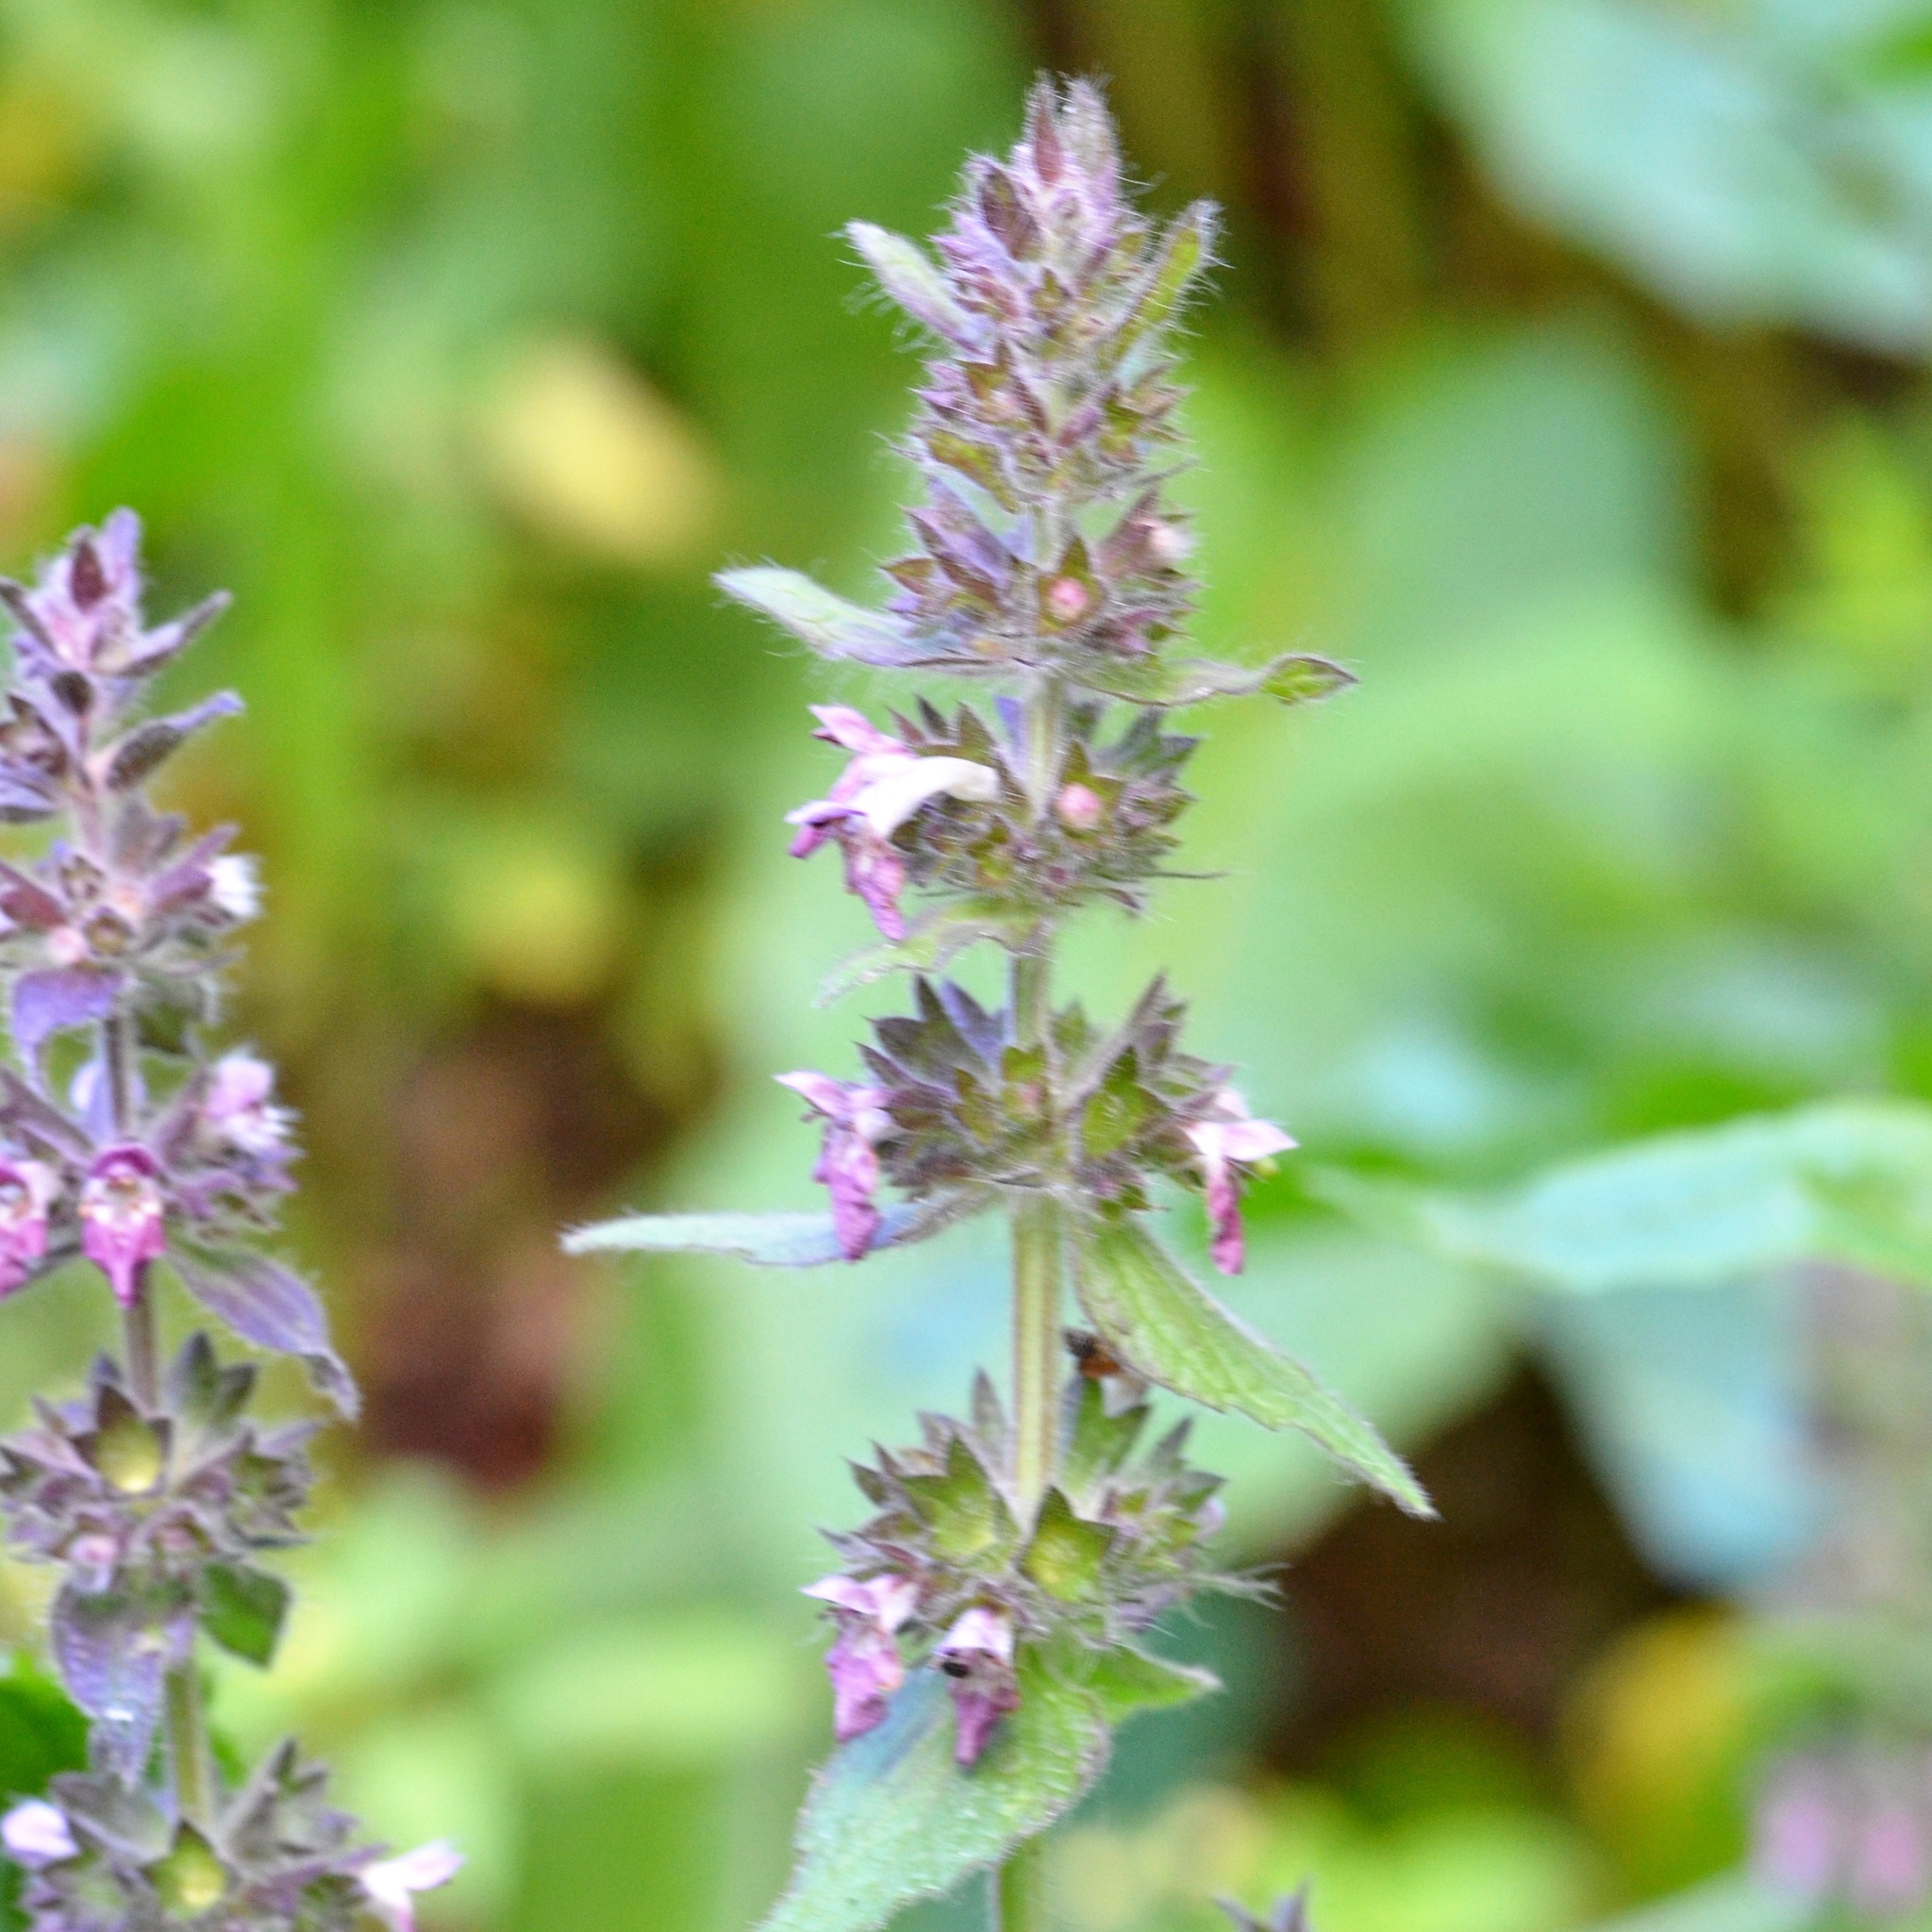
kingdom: Plantae
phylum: Tracheophyta
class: Magnoliopsida
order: Lamiales
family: Lamiaceae
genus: Stachys
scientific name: Stachys alpina
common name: Limestone woundwort
